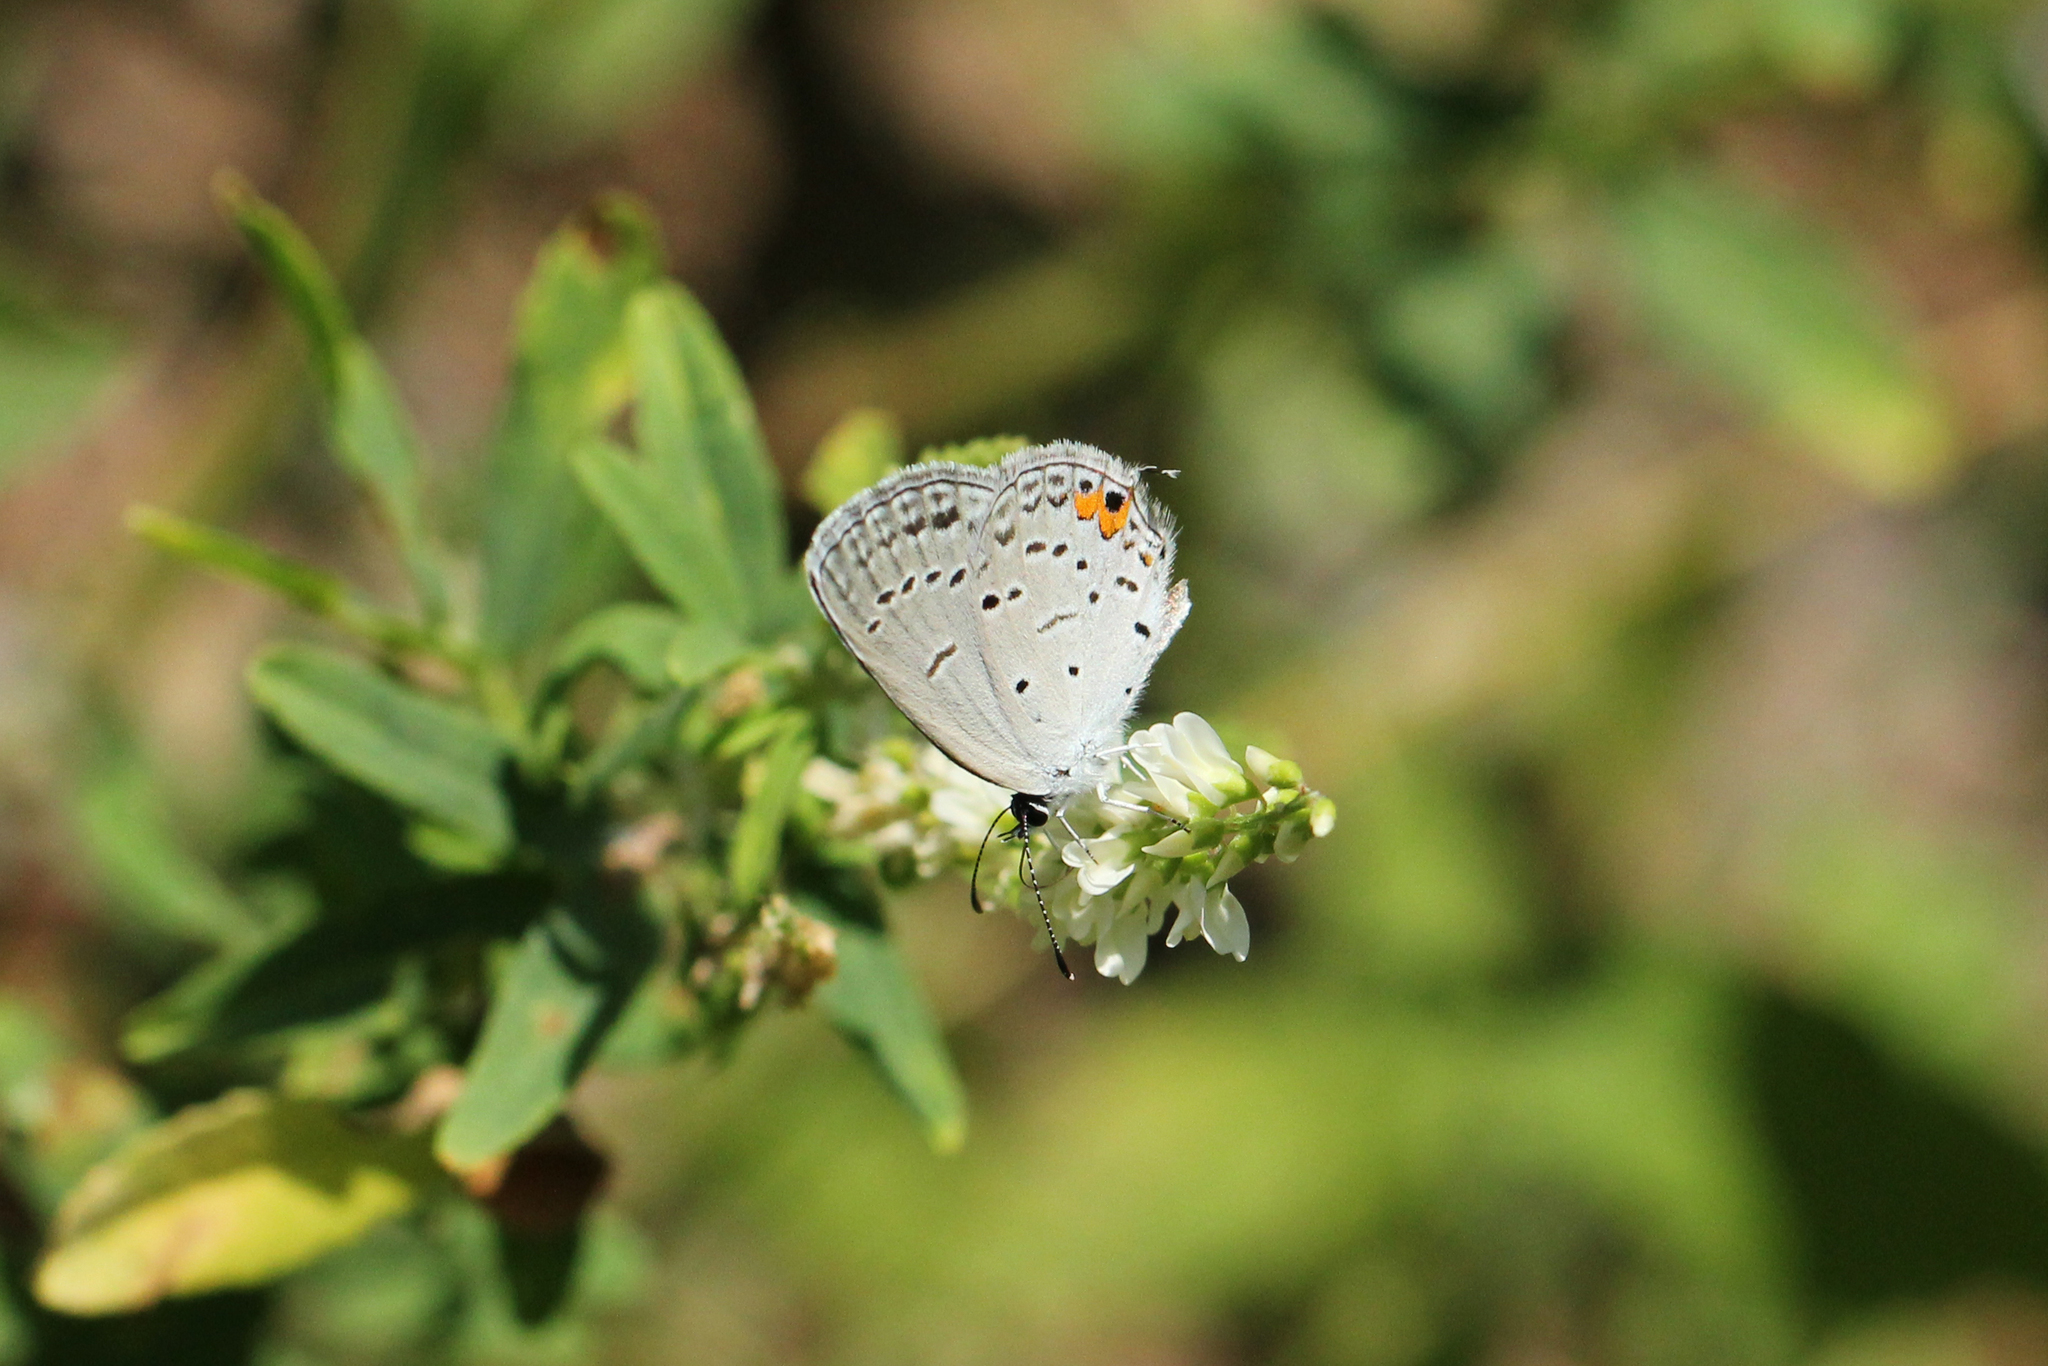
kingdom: Animalia
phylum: Arthropoda
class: Insecta
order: Lepidoptera
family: Lycaenidae
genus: Elkalyce
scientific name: Elkalyce comyntas
